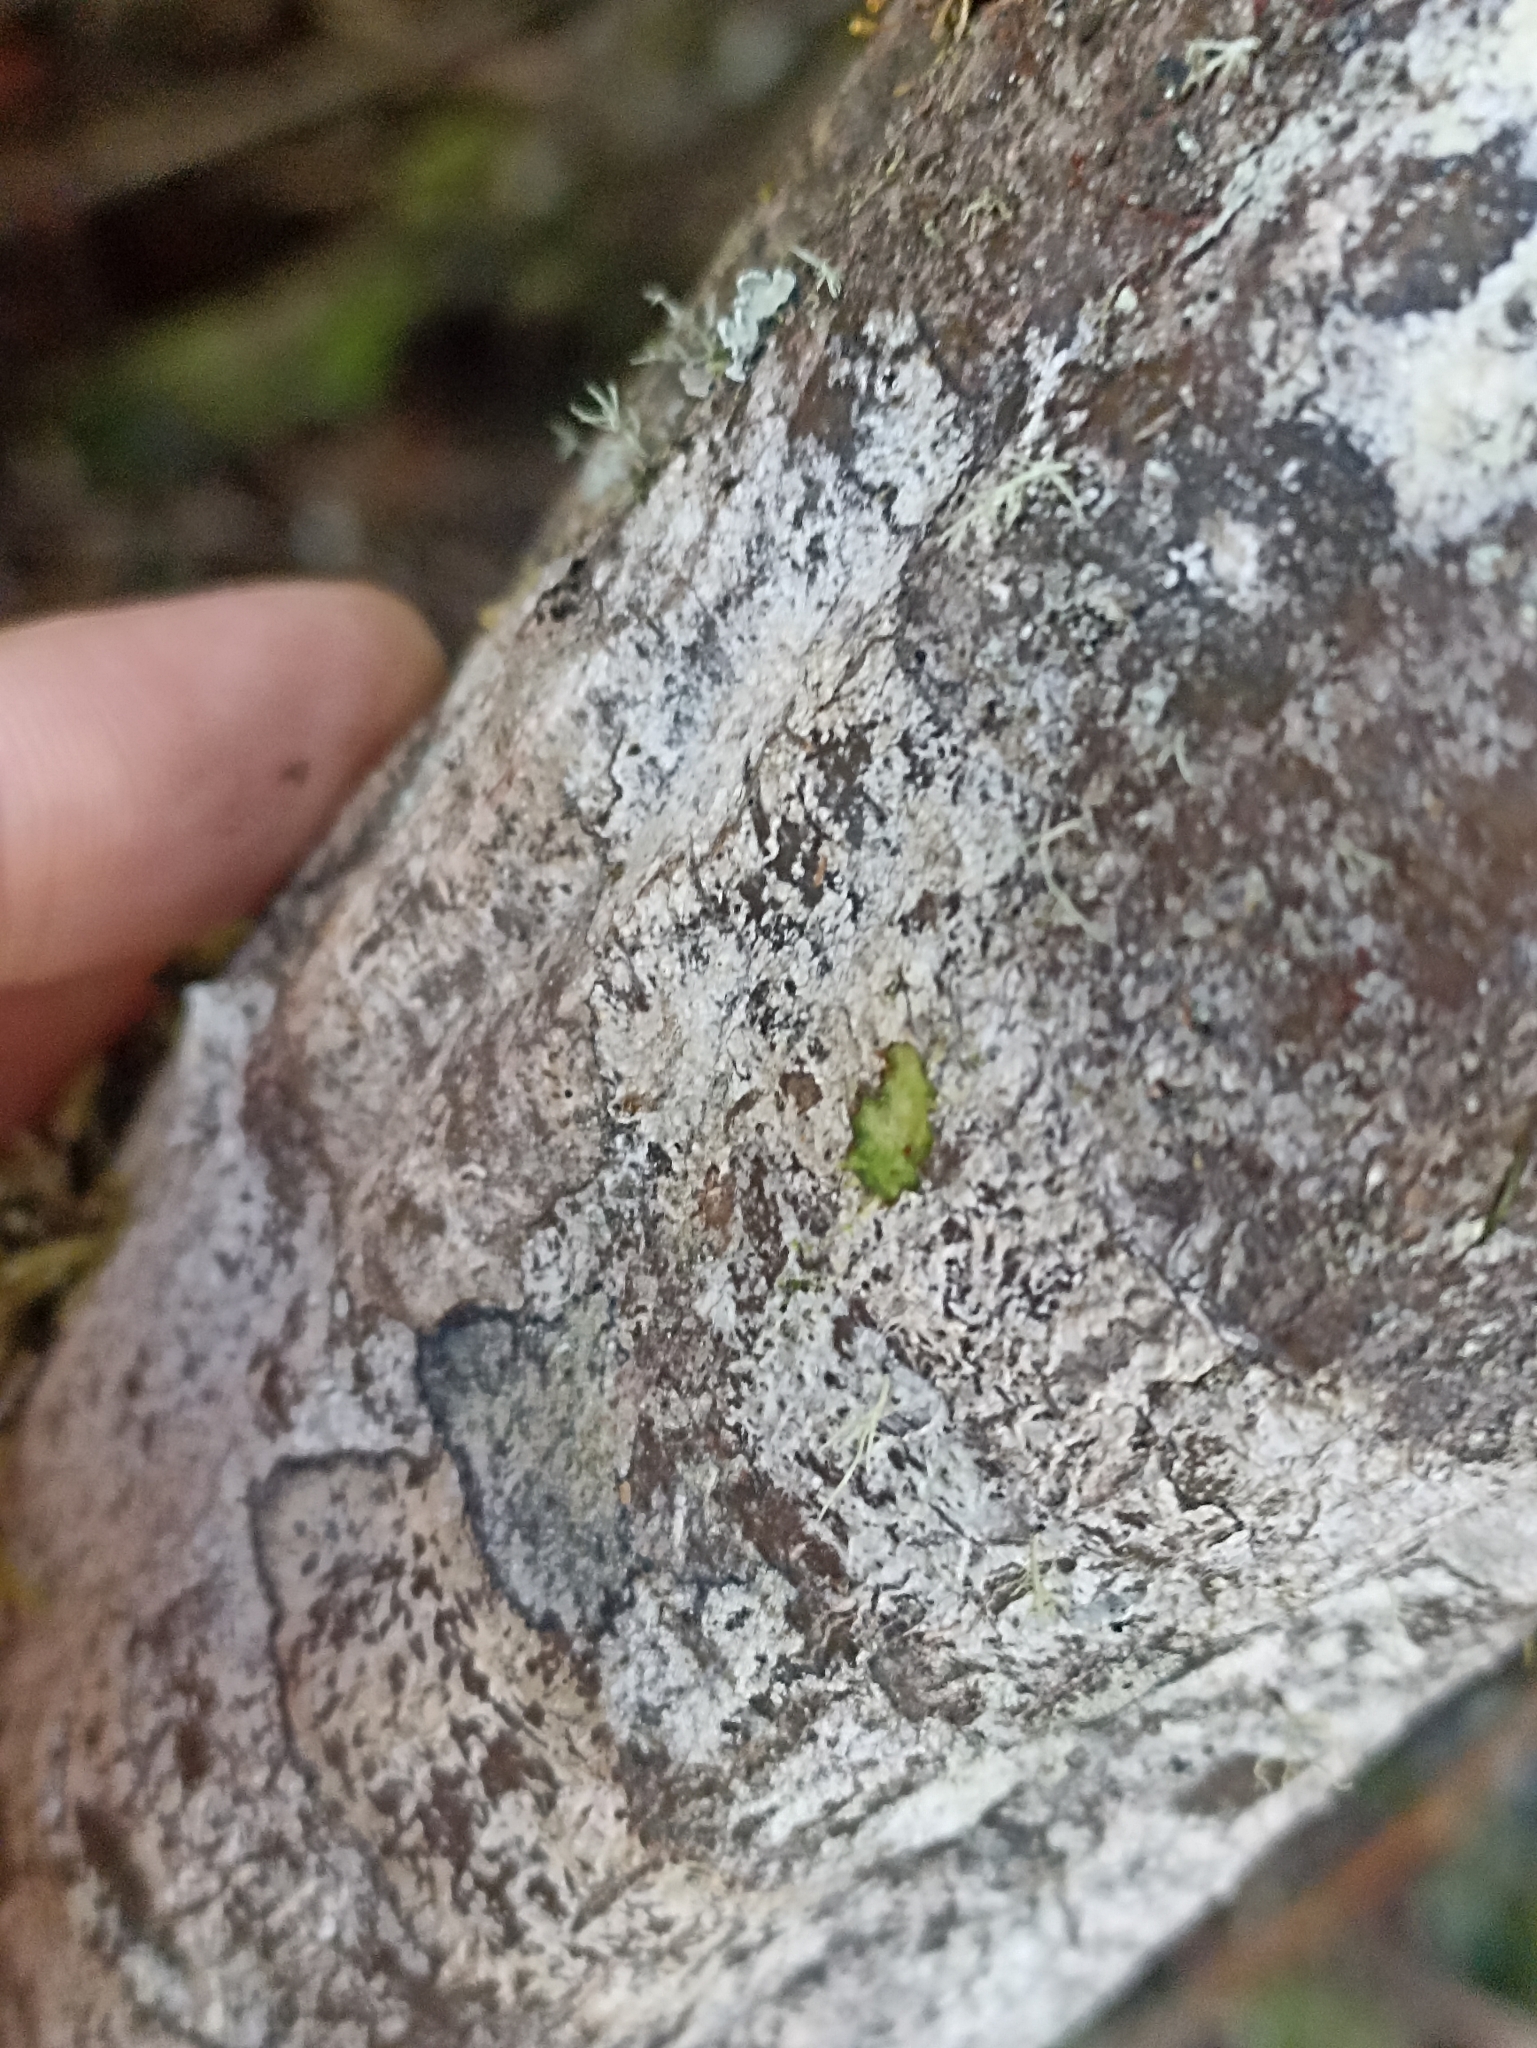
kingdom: Plantae
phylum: Tracheophyta
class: Magnoliopsida
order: Gentianales
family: Rubiaceae
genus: Coprosma
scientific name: Coprosma dumosa
